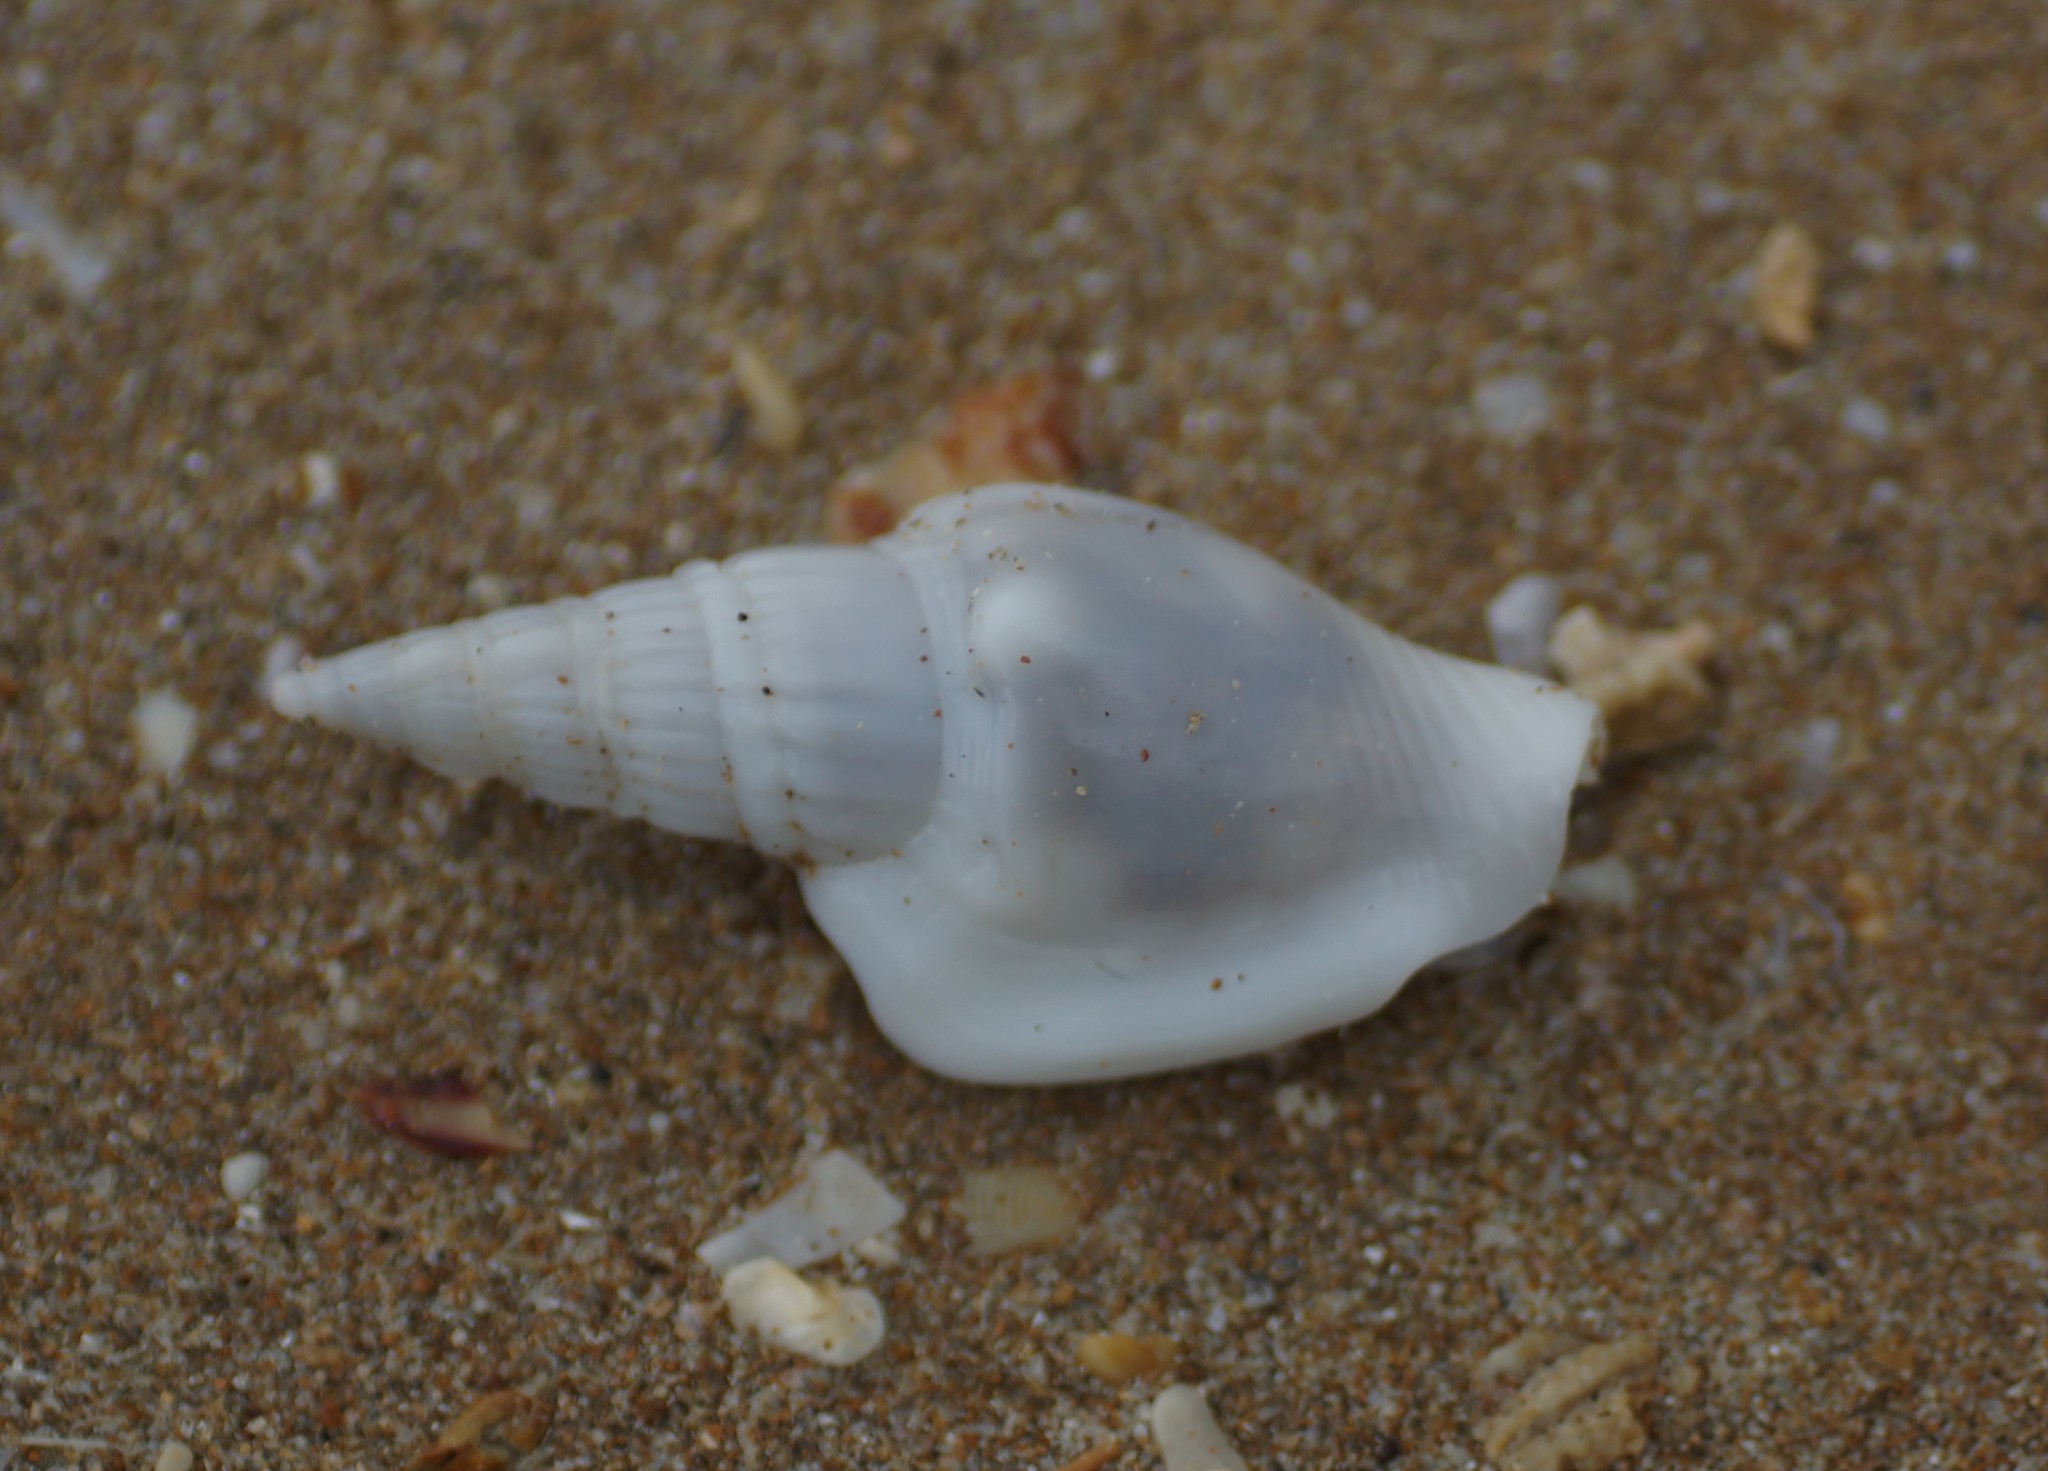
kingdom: Animalia
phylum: Mollusca
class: Gastropoda
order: Littorinimorpha
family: Strombidae
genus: Doxander
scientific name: Doxander campbellii
